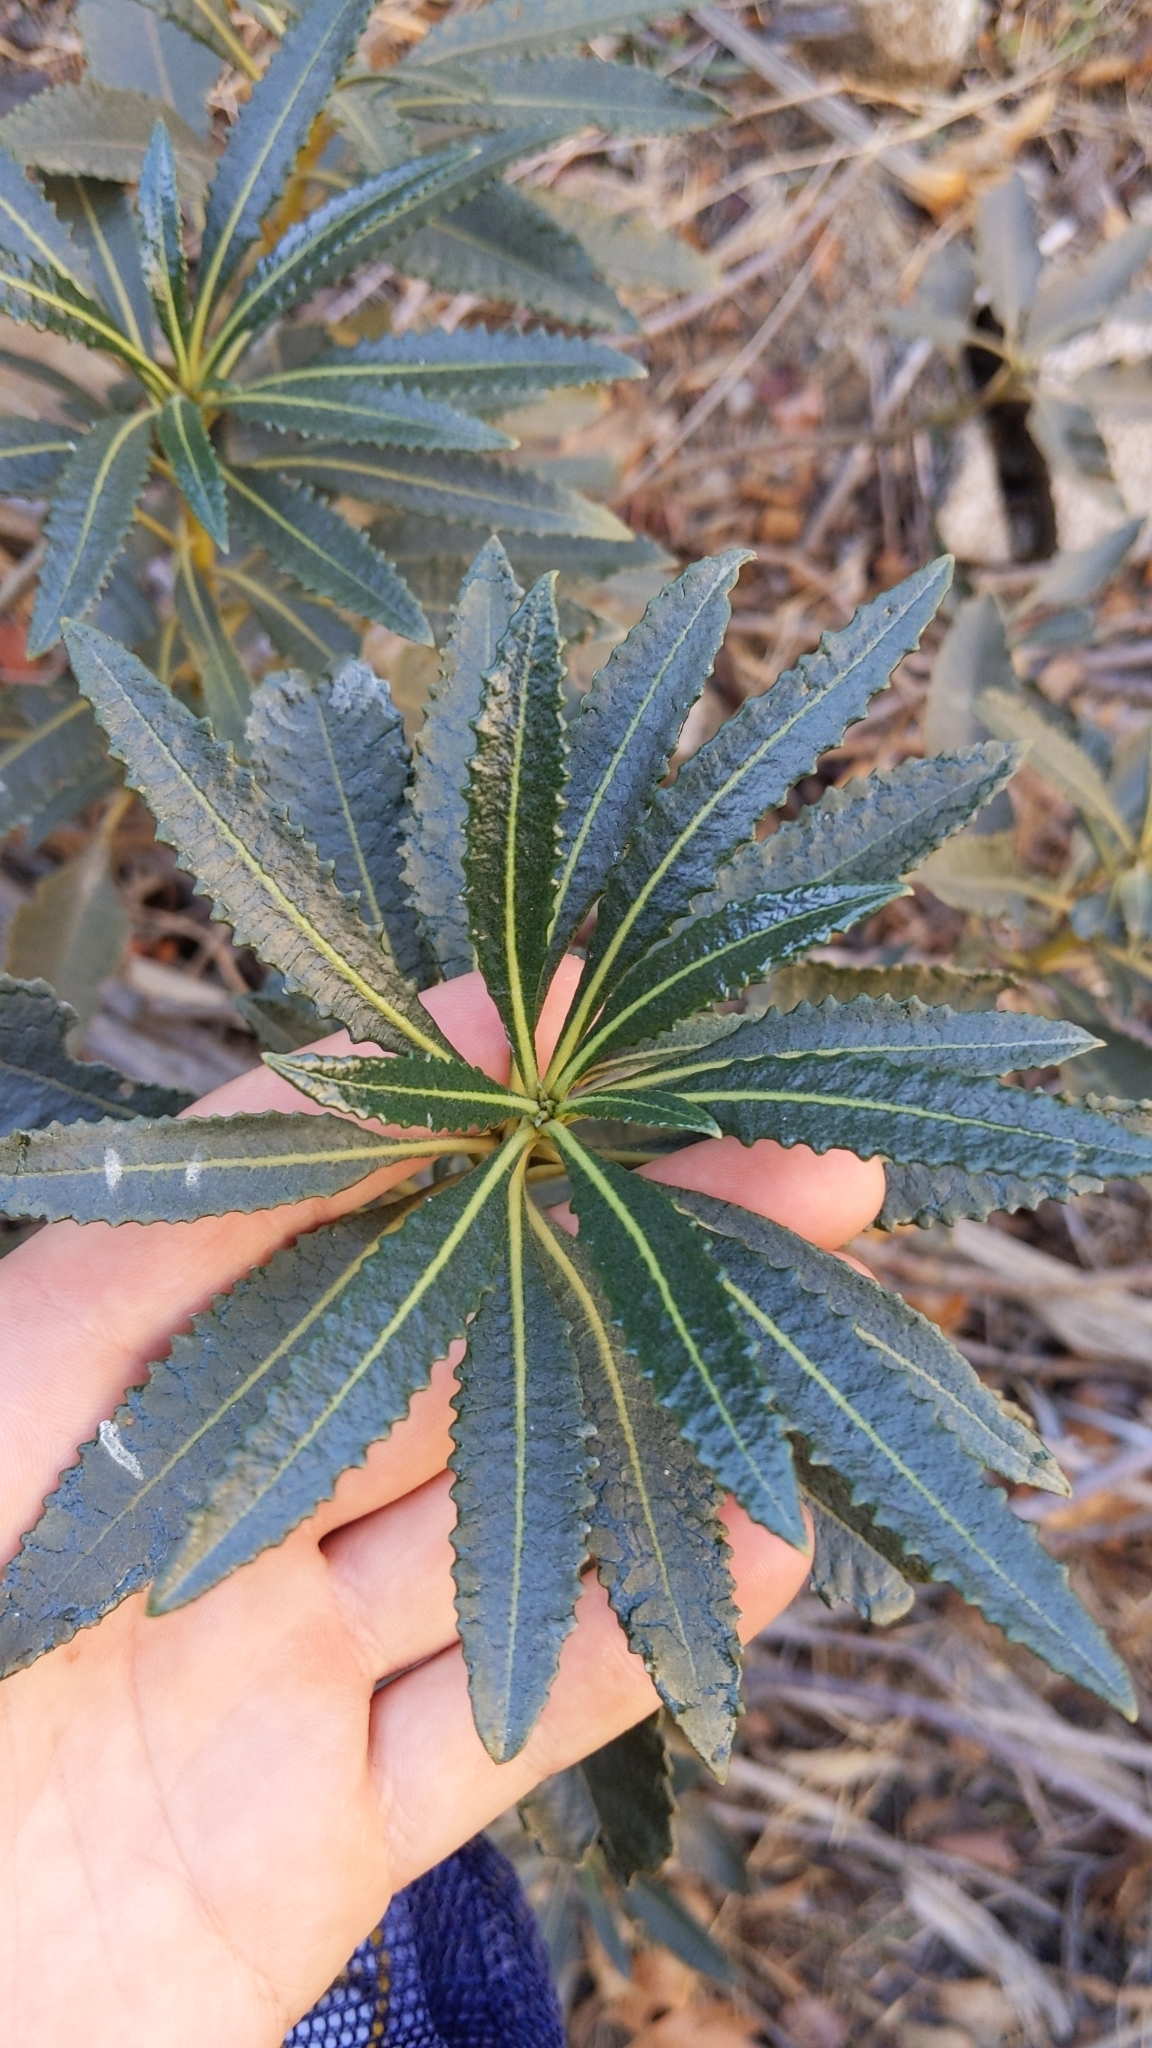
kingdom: Plantae
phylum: Tracheophyta
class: Magnoliopsida
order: Boraginales
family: Namaceae
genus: Eriodictyon
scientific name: Eriodictyon trichocalyx
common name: Hairy yerba-santa
